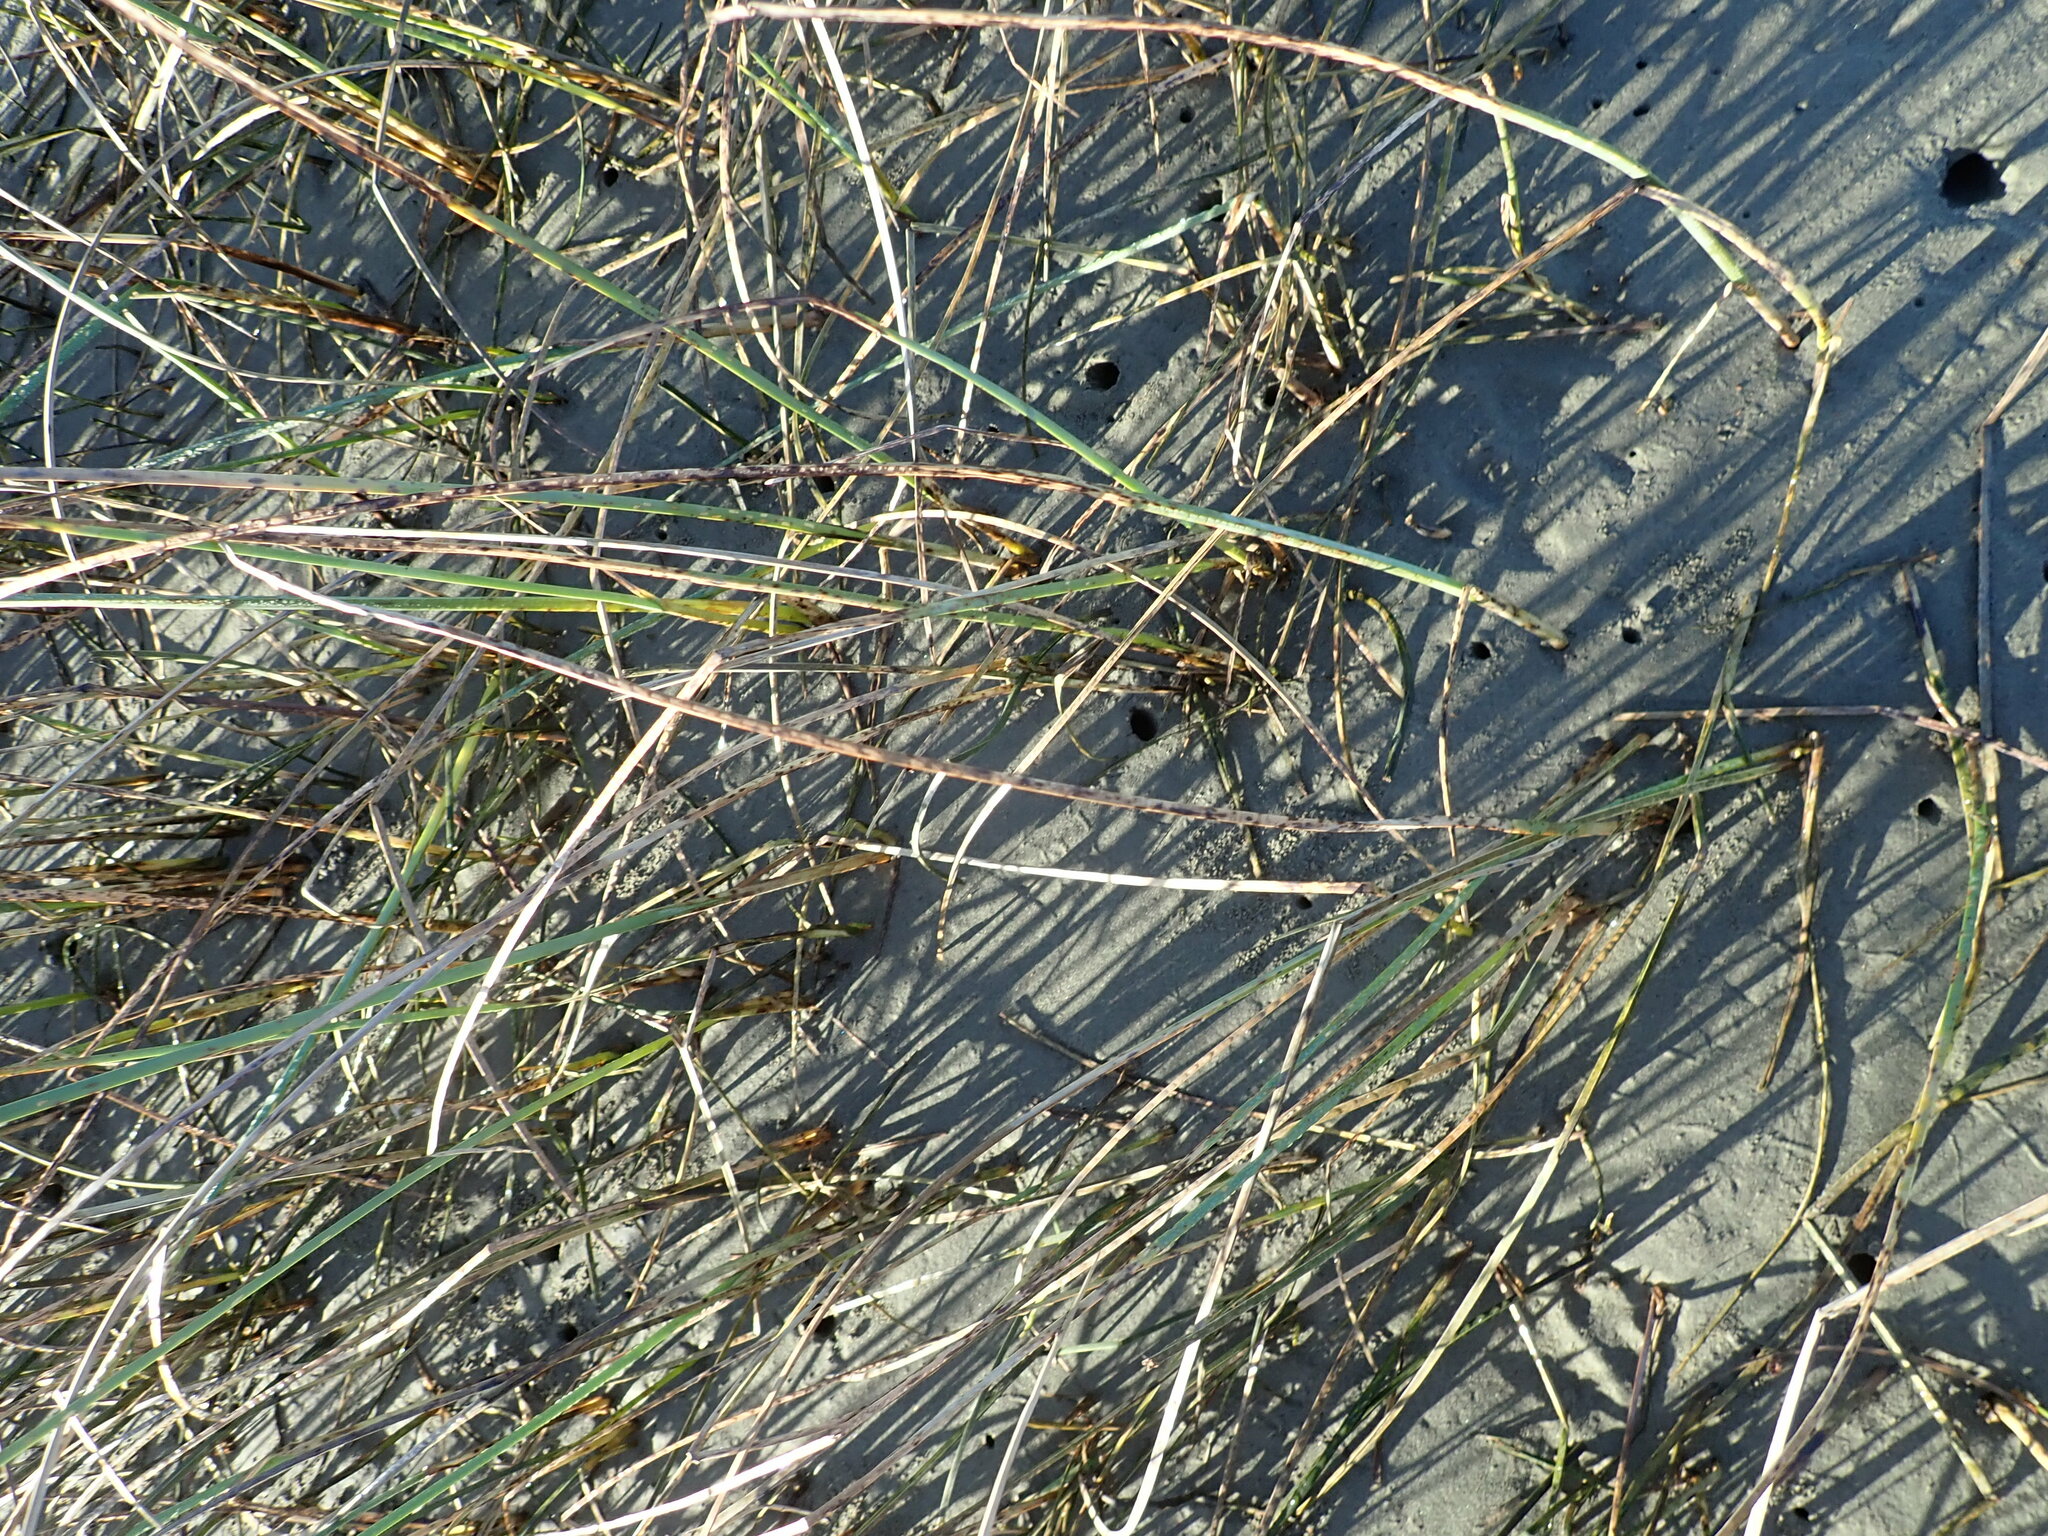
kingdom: Plantae
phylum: Tracheophyta
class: Liliopsida
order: Poales
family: Cyperaceae
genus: Schoenoplectus
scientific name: Schoenoplectus pungens
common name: Sharp club-rush
